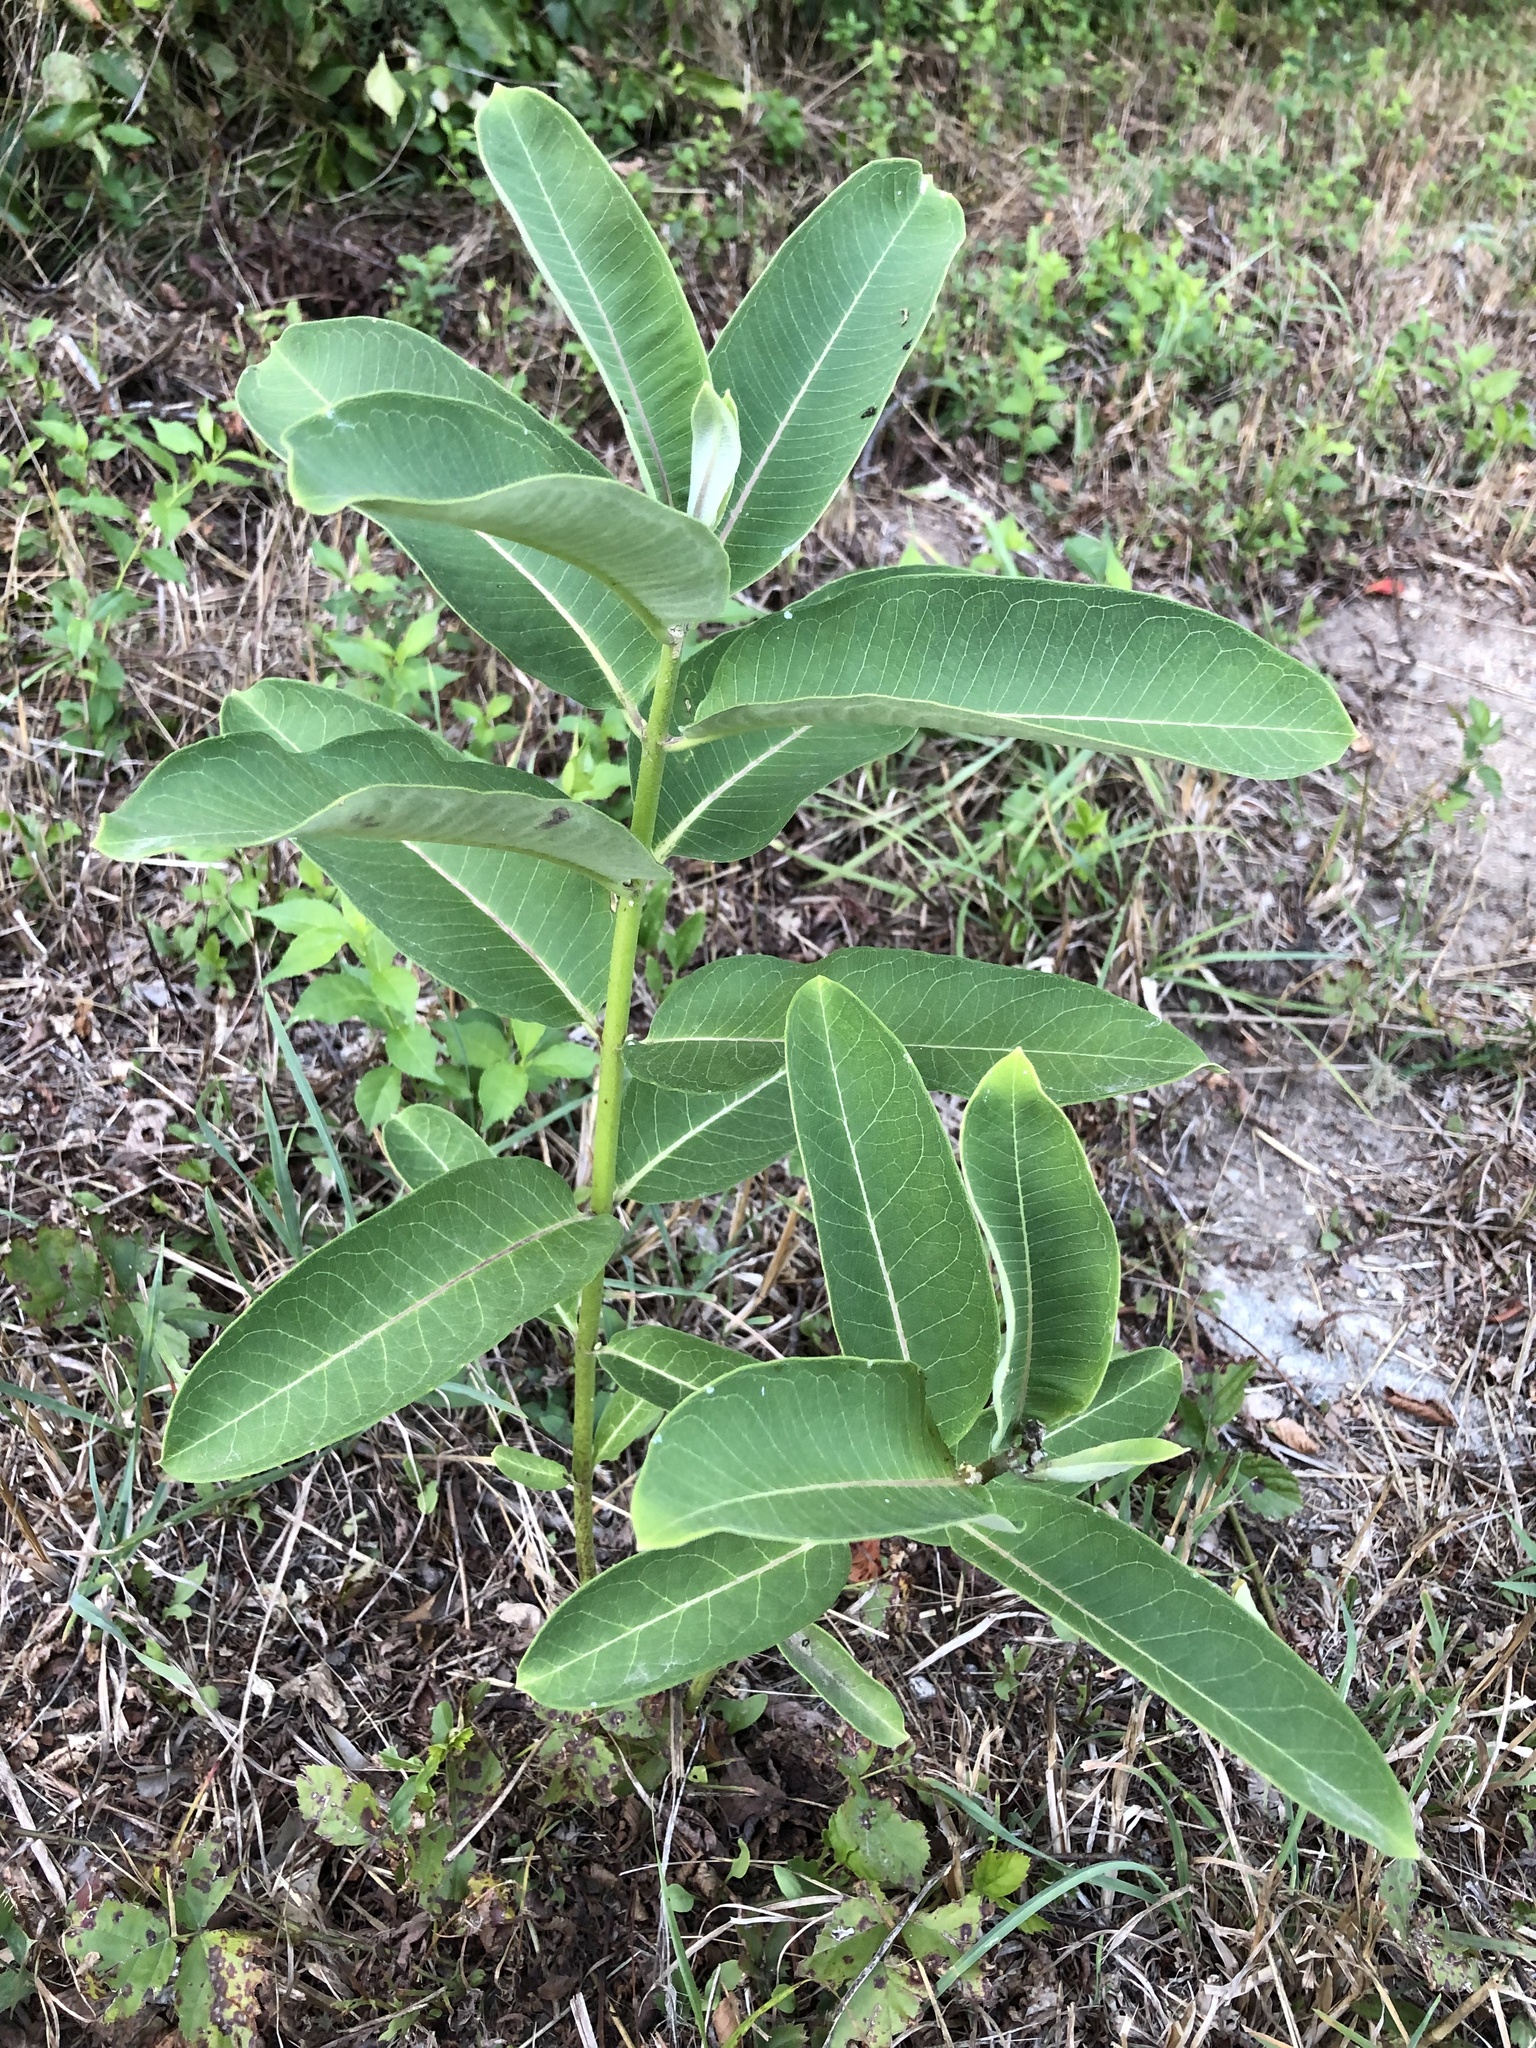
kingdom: Plantae
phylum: Tracheophyta
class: Magnoliopsida
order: Gentianales
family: Apocynaceae
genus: Asclepias
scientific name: Asclepias syriaca
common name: Common milkweed
